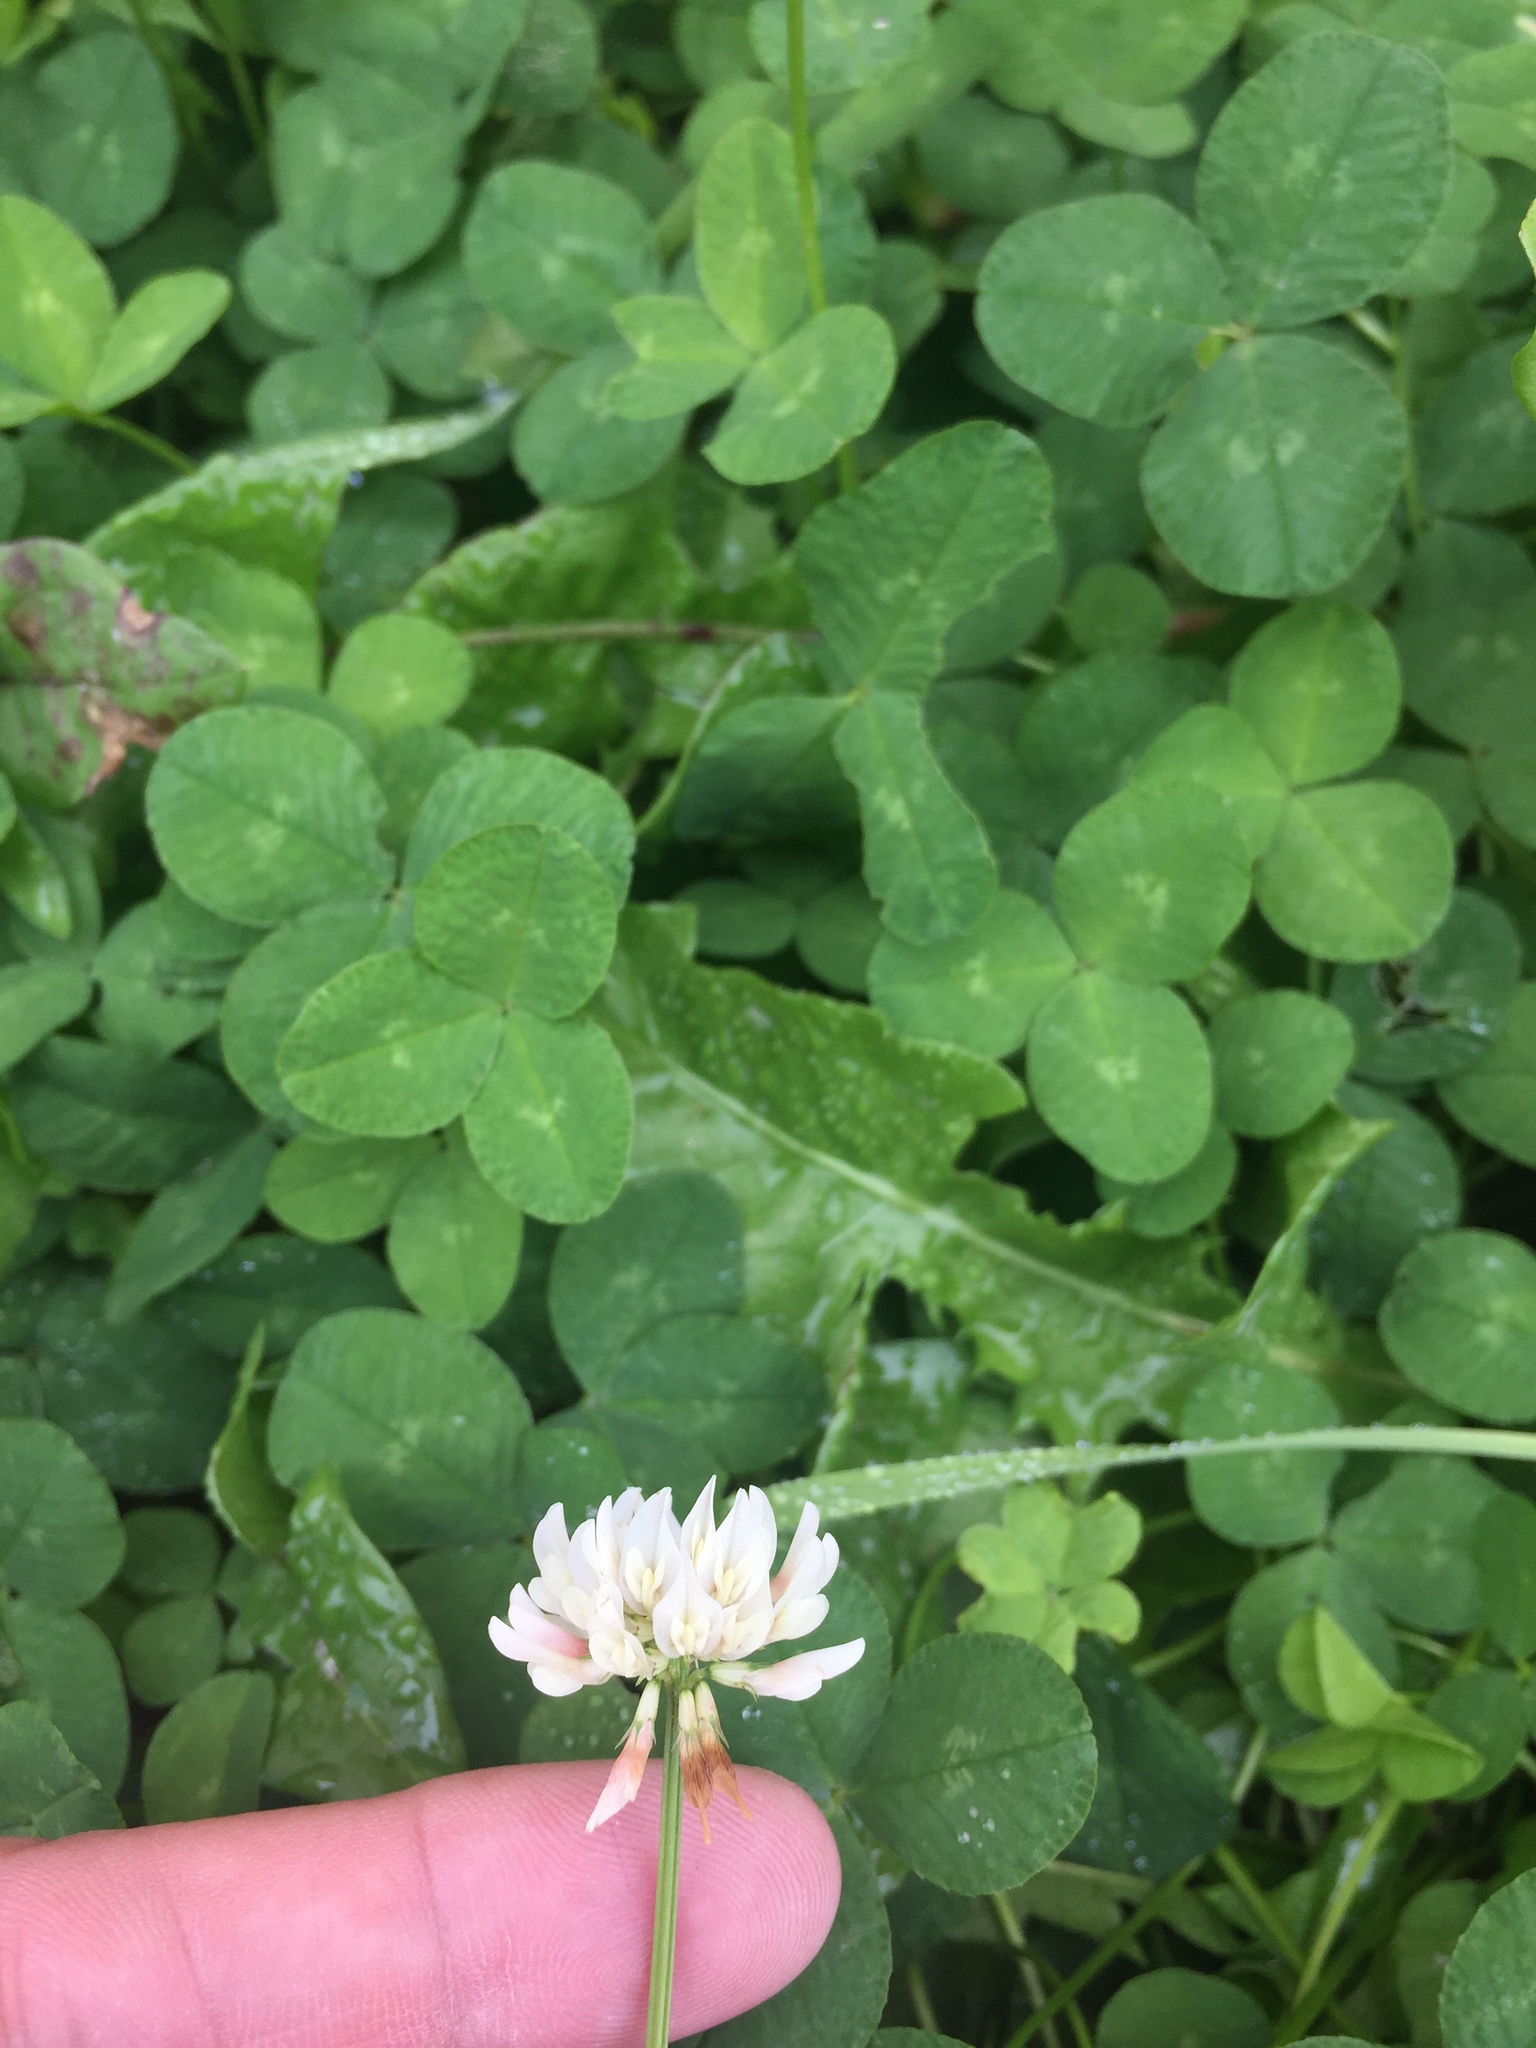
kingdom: Plantae
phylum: Tracheophyta
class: Magnoliopsida
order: Fabales
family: Fabaceae
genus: Trifolium
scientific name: Trifolium repens
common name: White clover
